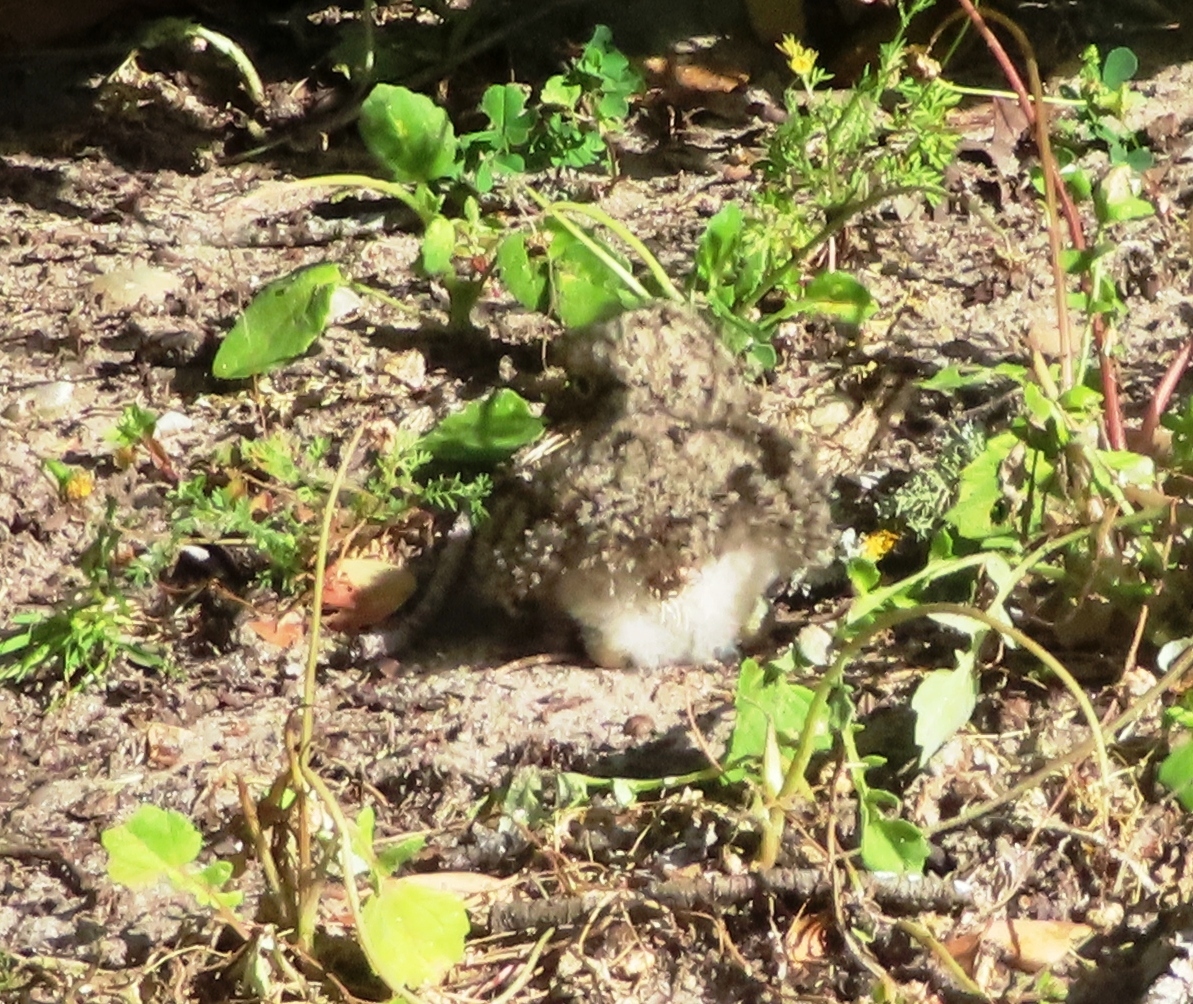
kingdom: Animalia
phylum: Chordata
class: Aves
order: Charadriiformes
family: Burhinidae
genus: Burhinus
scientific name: Burhinus capensis
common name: Spotted thick-knee
